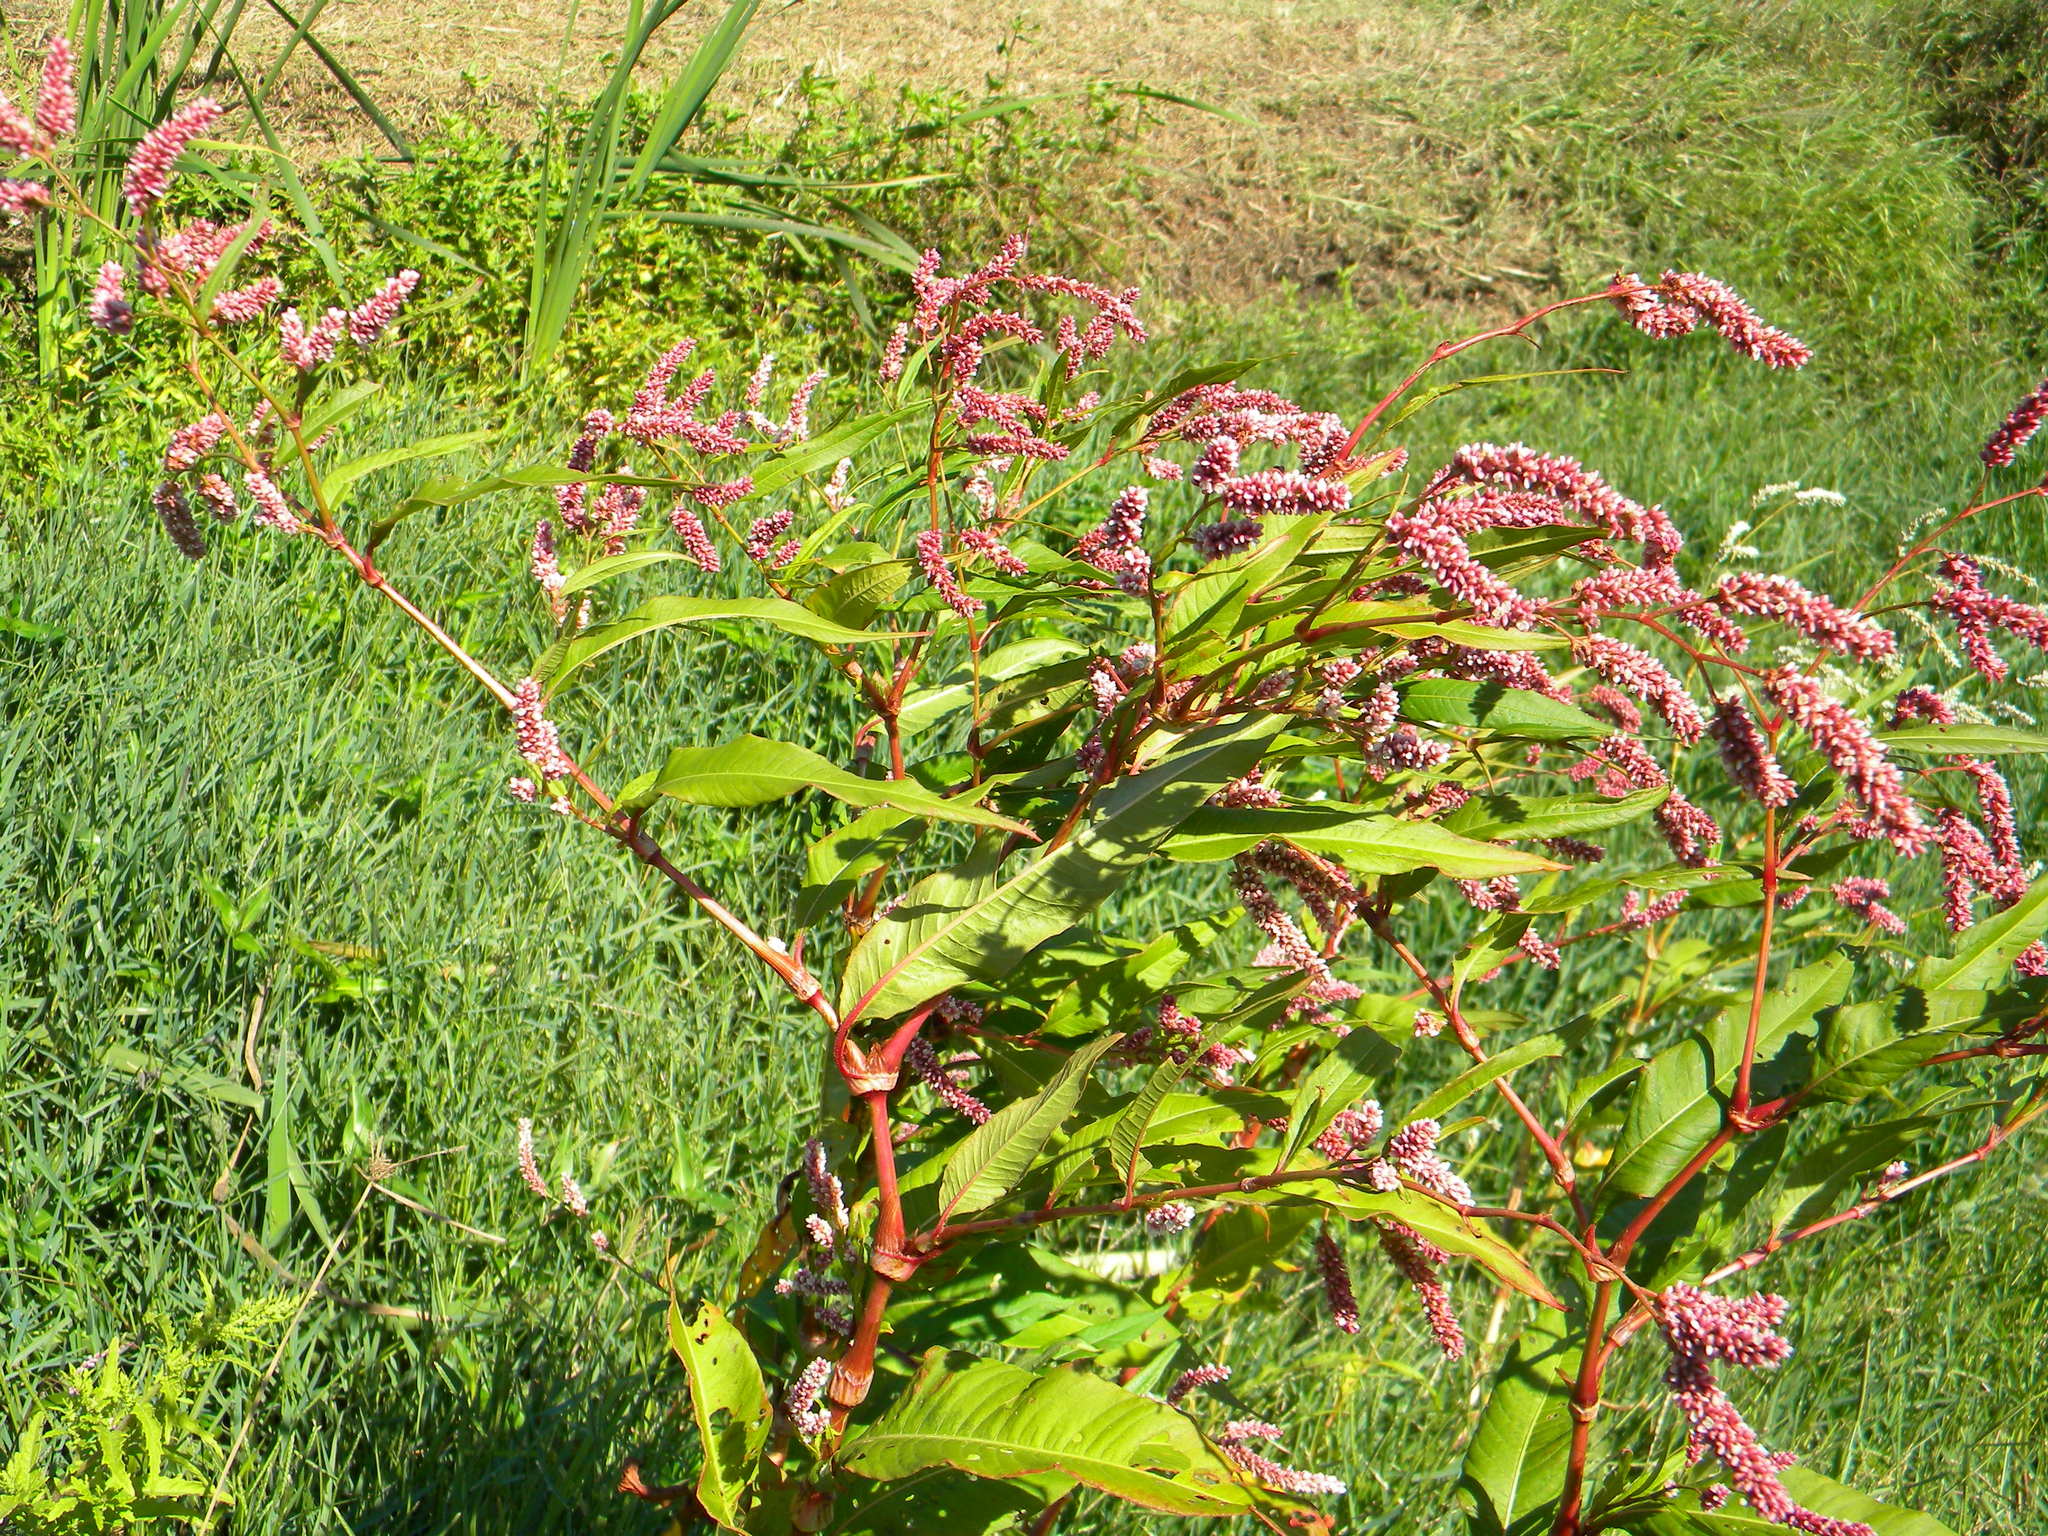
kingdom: Plantae
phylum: Tracheophyta
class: Magnoliopsida
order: Caryophyllales
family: Polygonaceae
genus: Persicaria
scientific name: Persicaria lapathifolia
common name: Curlytop knotweed
